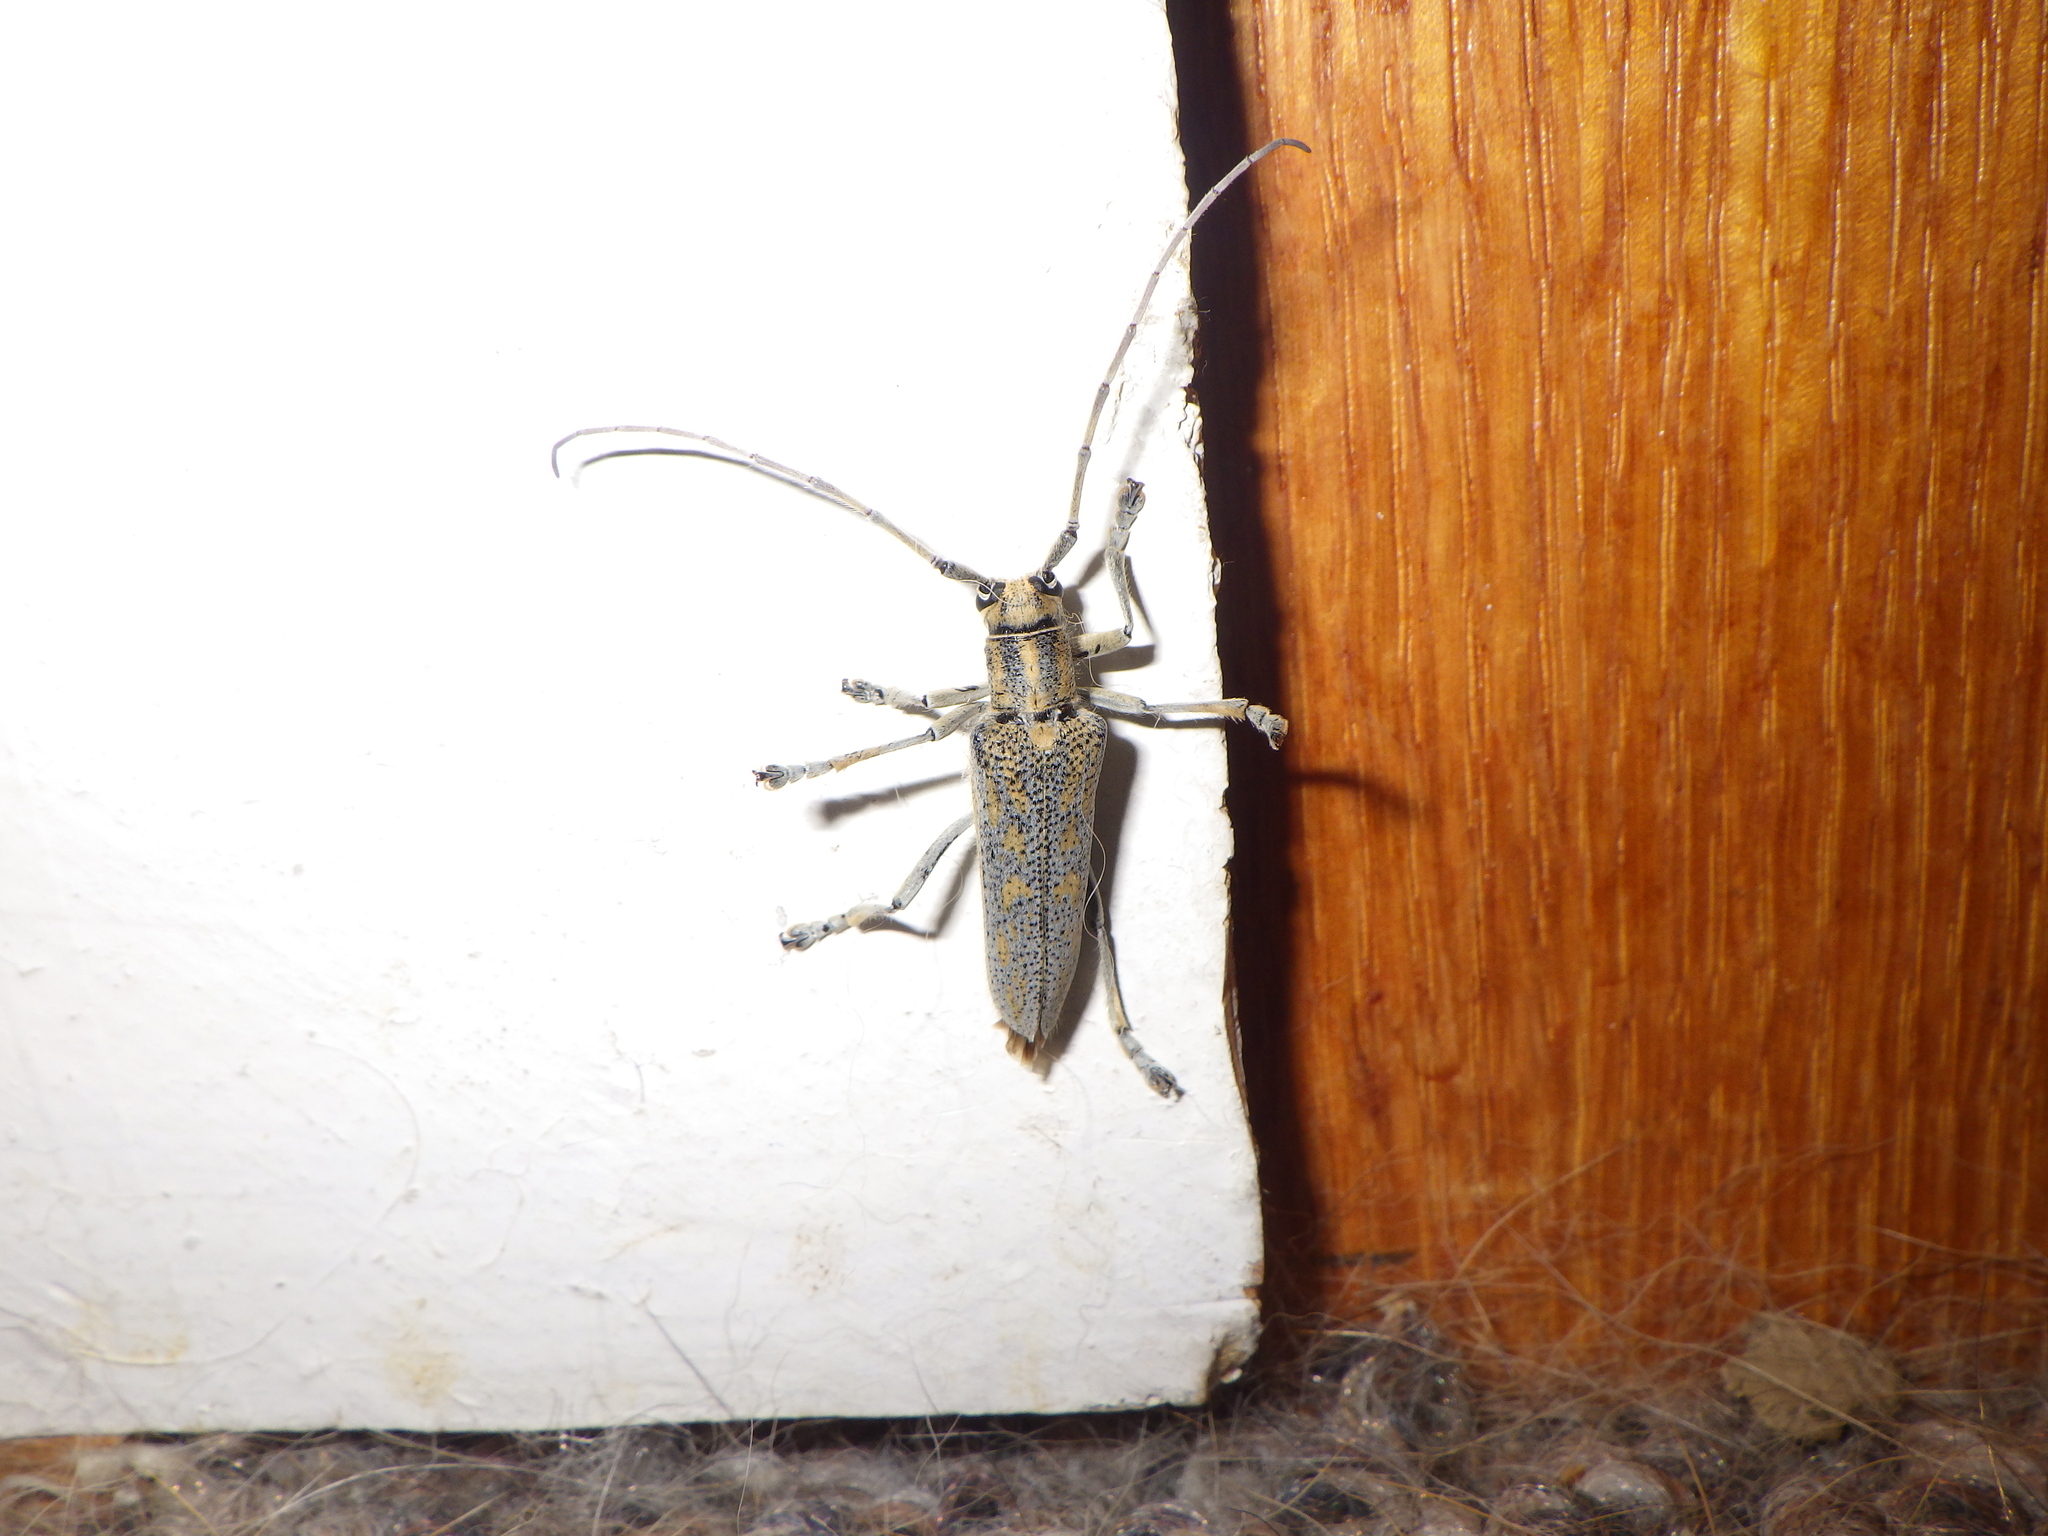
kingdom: Animalia
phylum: Arthropoda
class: Insecta
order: Coleoptera
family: Cerambycidae
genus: Saperda
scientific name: Saperda calcarata
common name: Poplar borer
